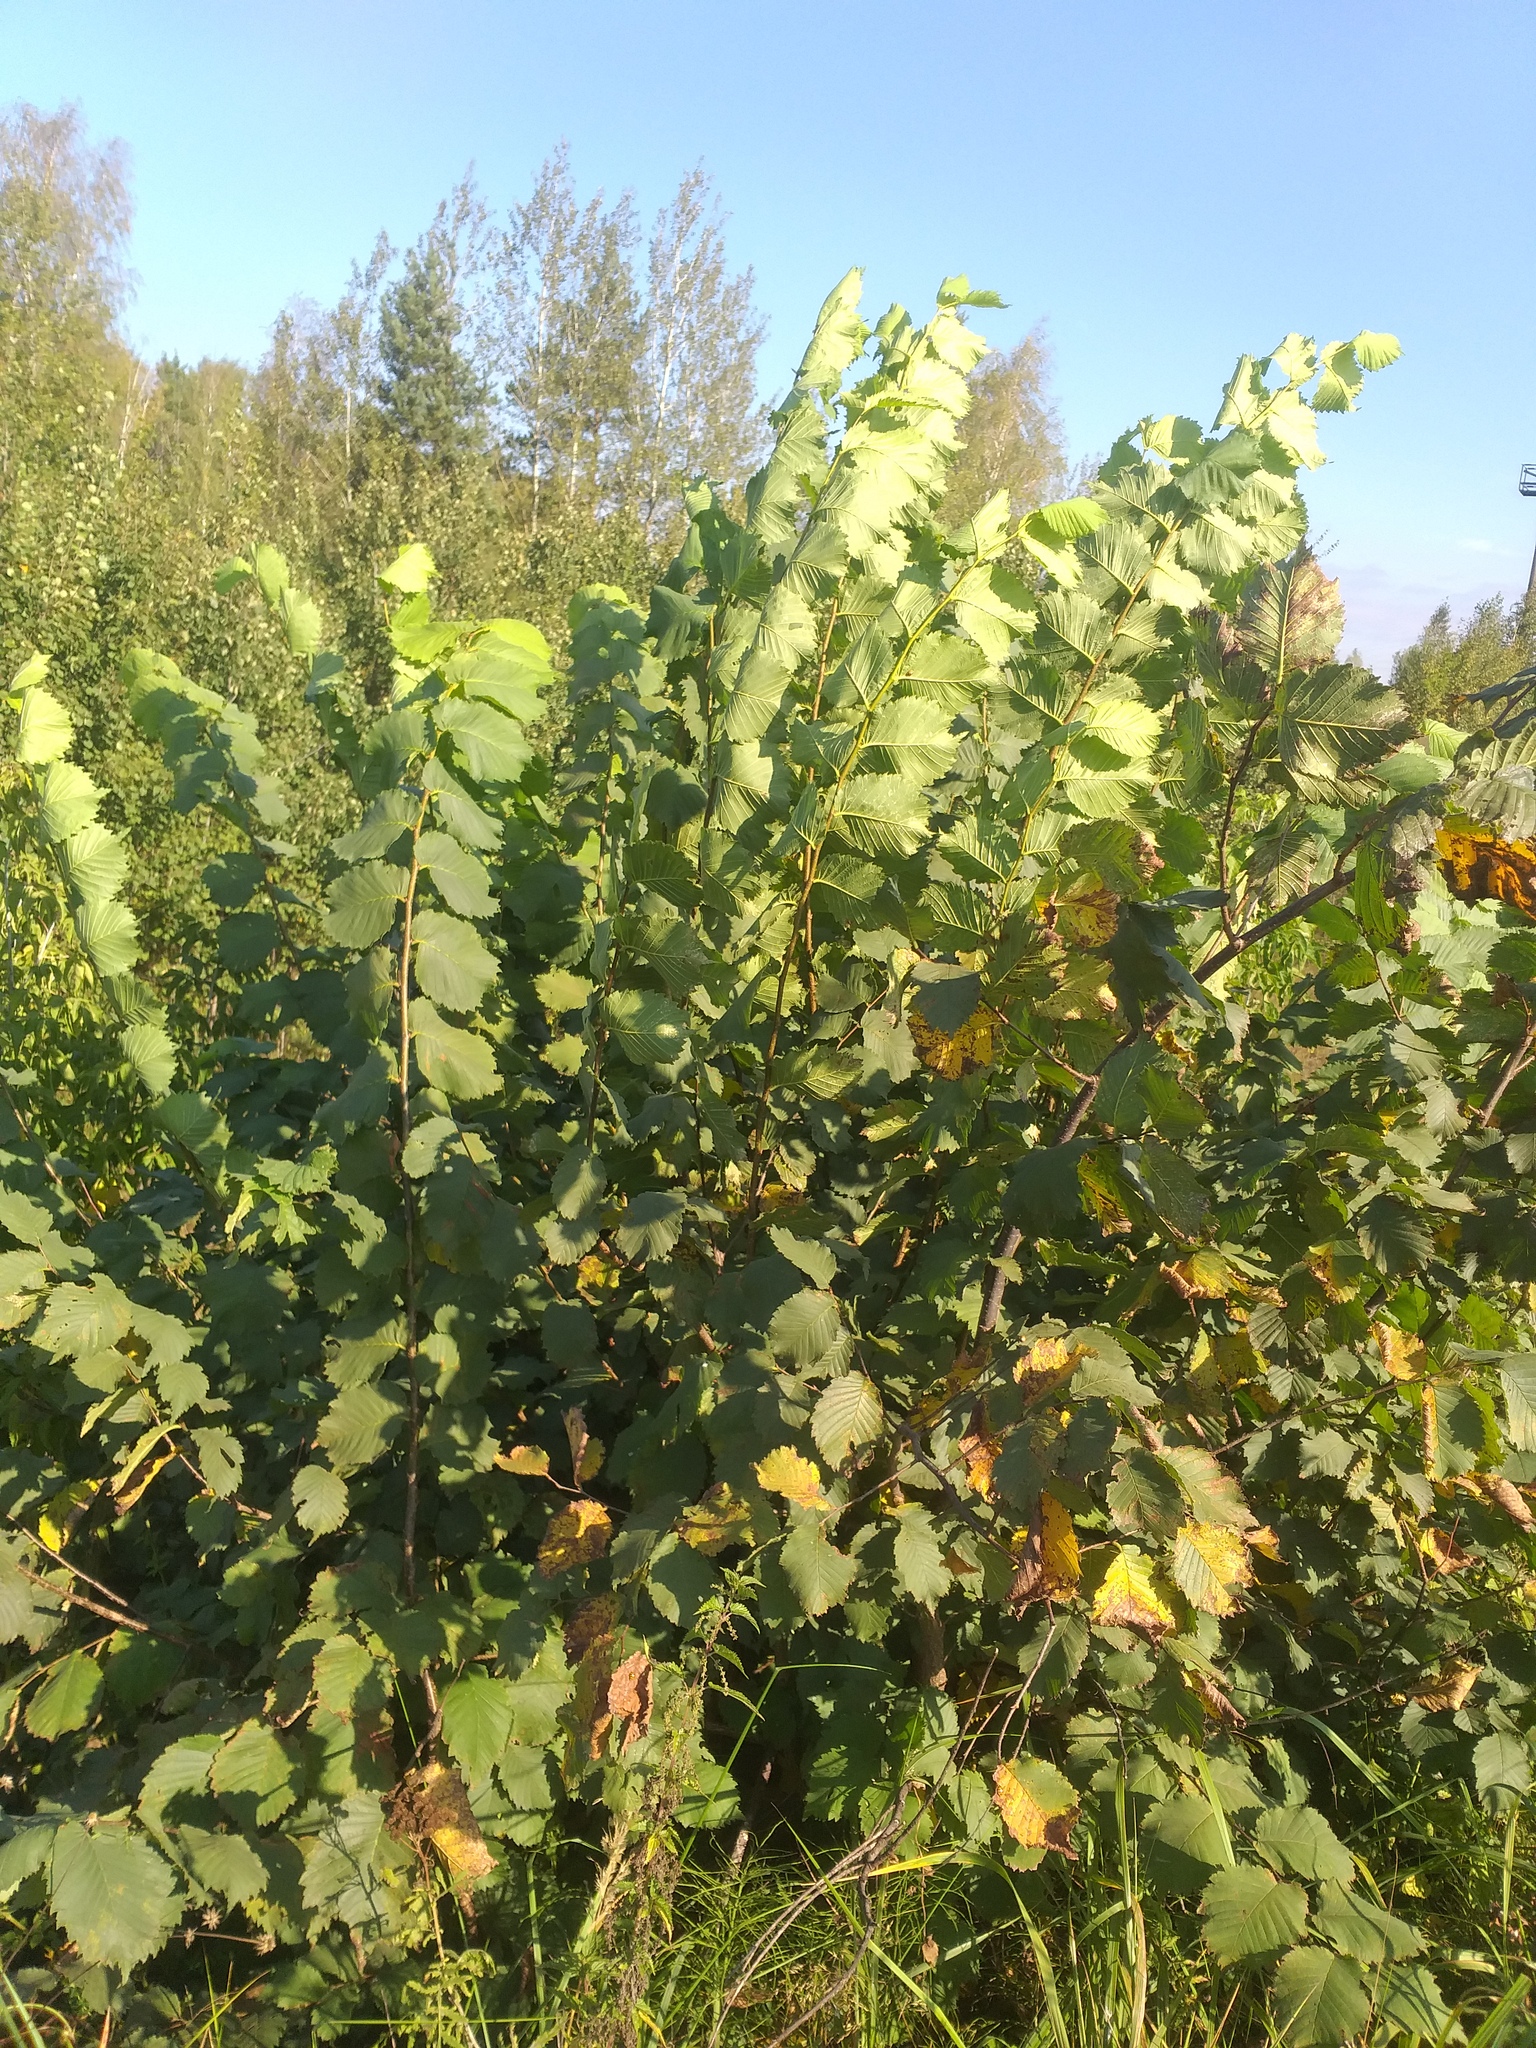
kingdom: Plantae
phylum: Tracheophyta
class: Magnoliopsida
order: Rosales
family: Ulmaceae
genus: Ulmus
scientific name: Ulmus laevis
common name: European white-elm
